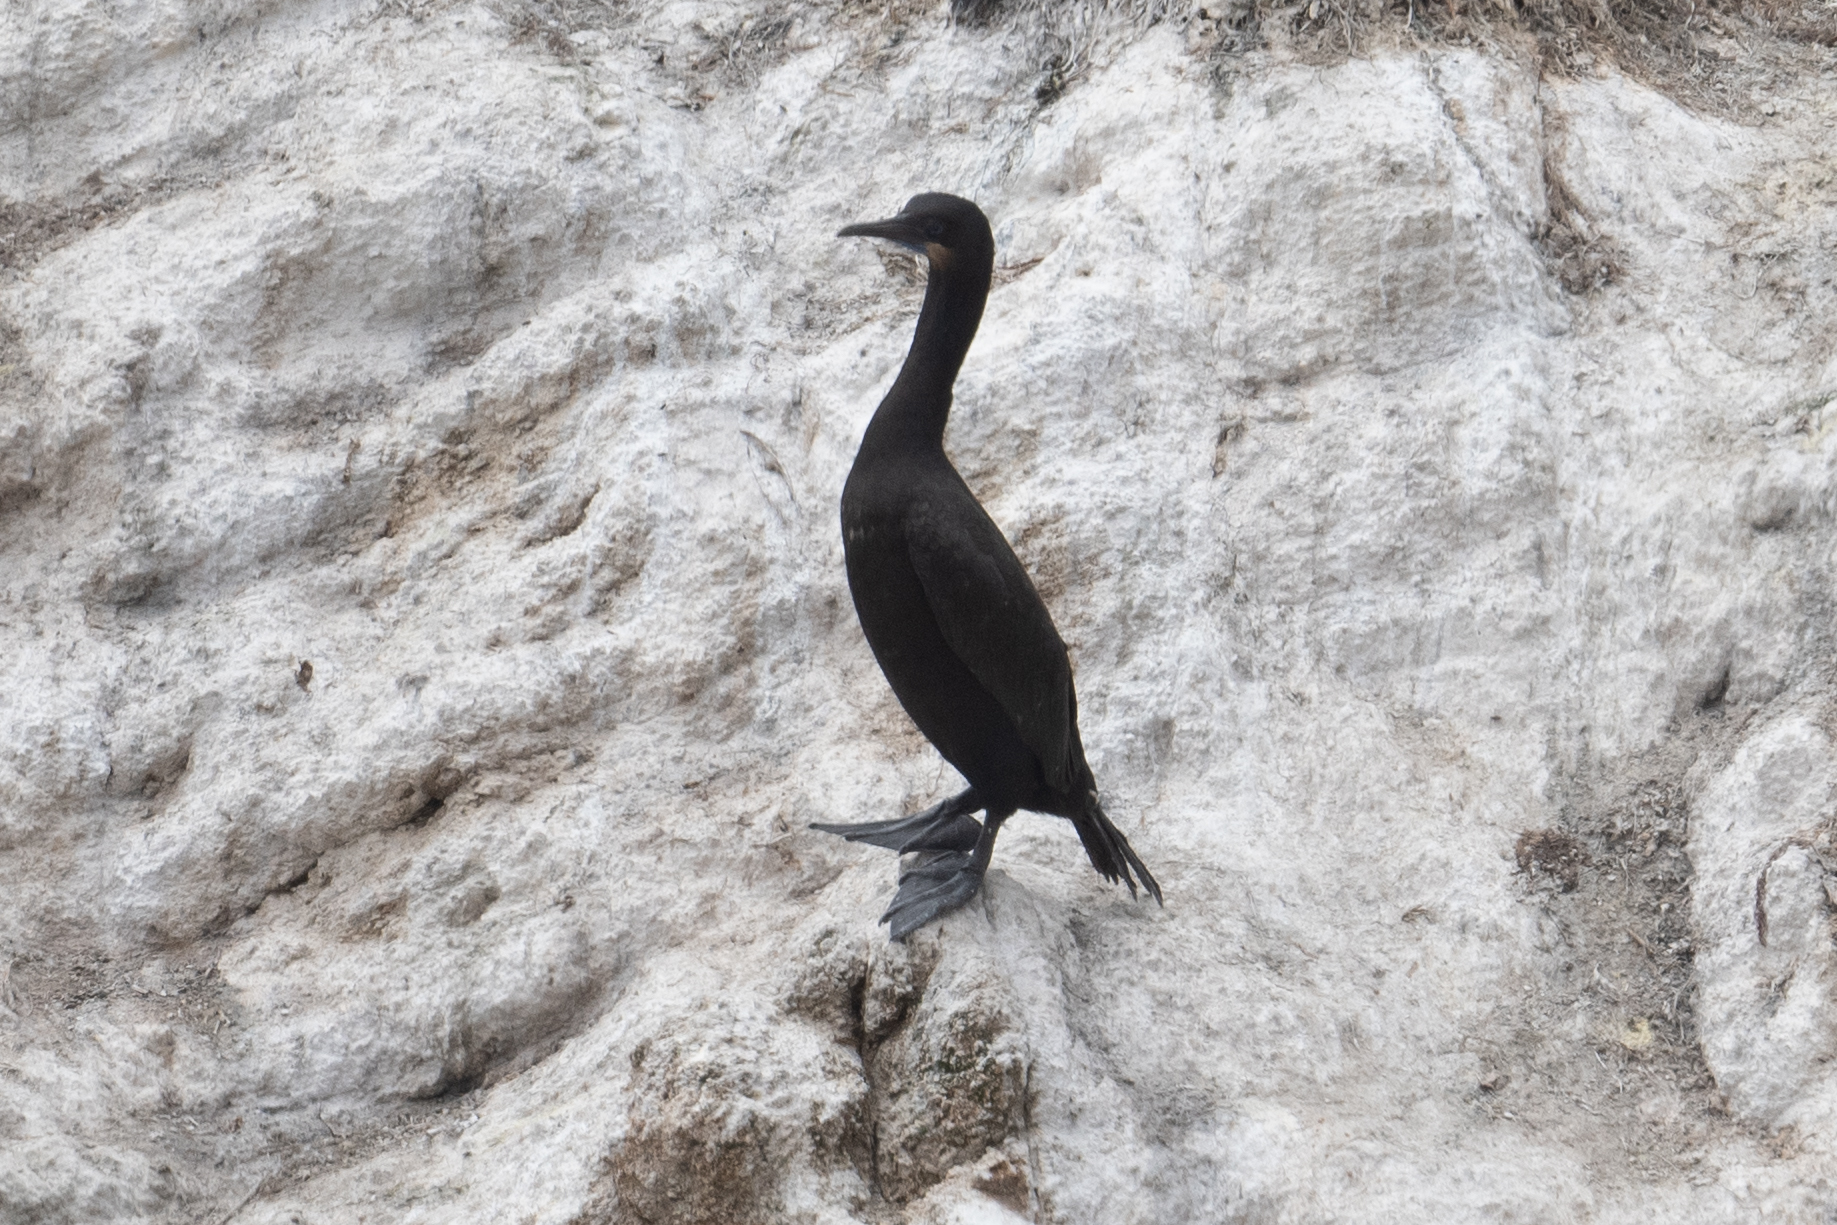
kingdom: Animalia
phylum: Chordata
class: Aves
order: Suliformes
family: Phalacrocoracidae
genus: Urile
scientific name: Urile penicillatus
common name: Brandt's cormorant
